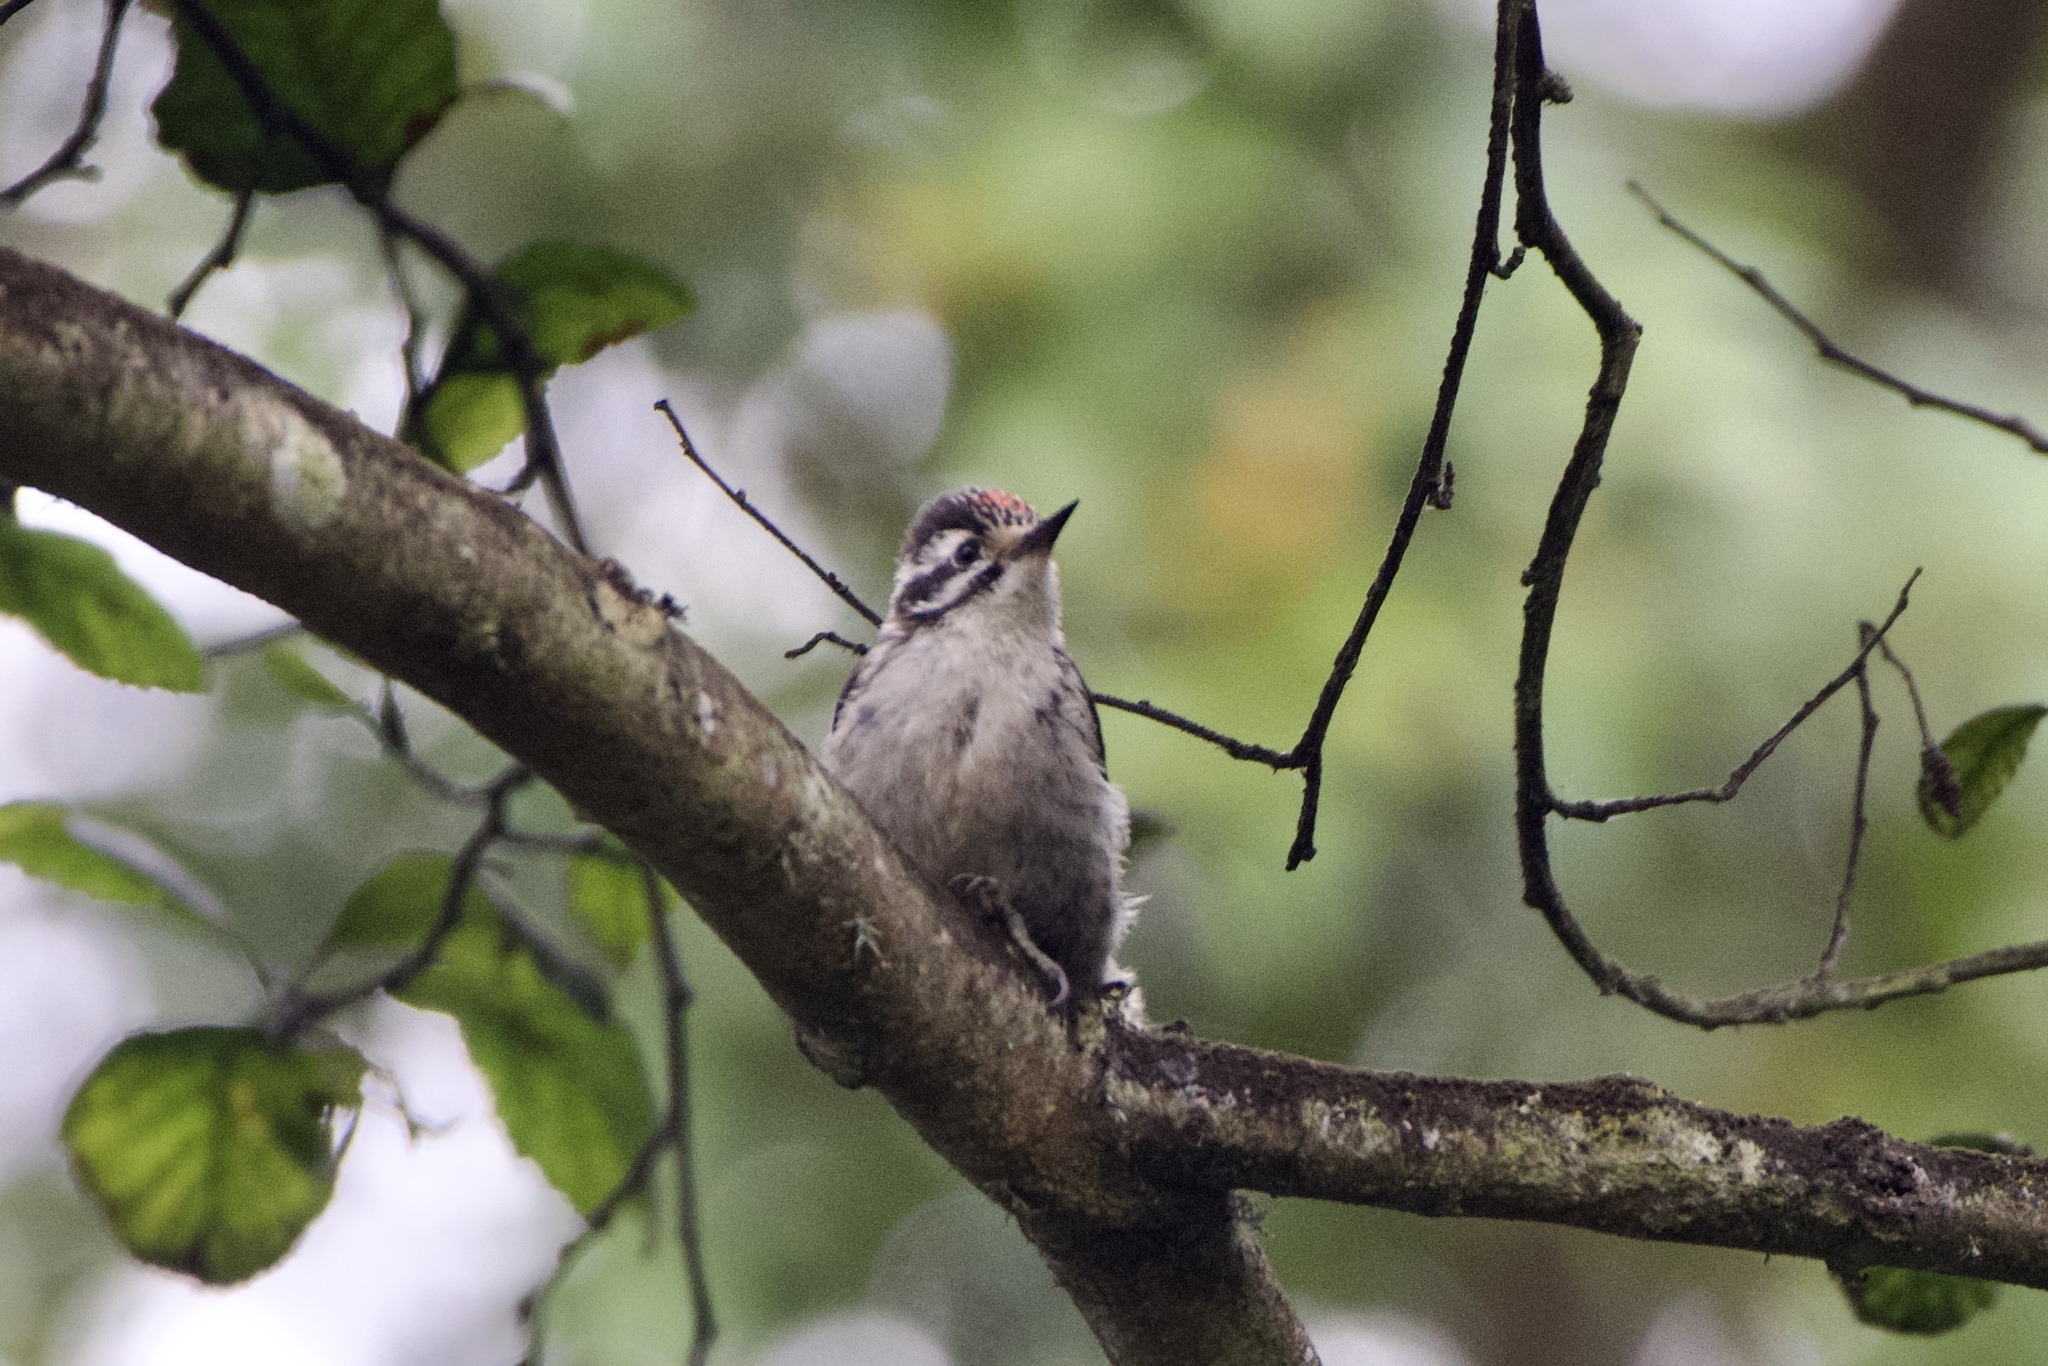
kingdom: Animalia
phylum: Chordata
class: Aves
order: Piciformes
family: Picidae
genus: Dryobates
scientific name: Dryobates nuttallii
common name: Nuttall's woodpecker
